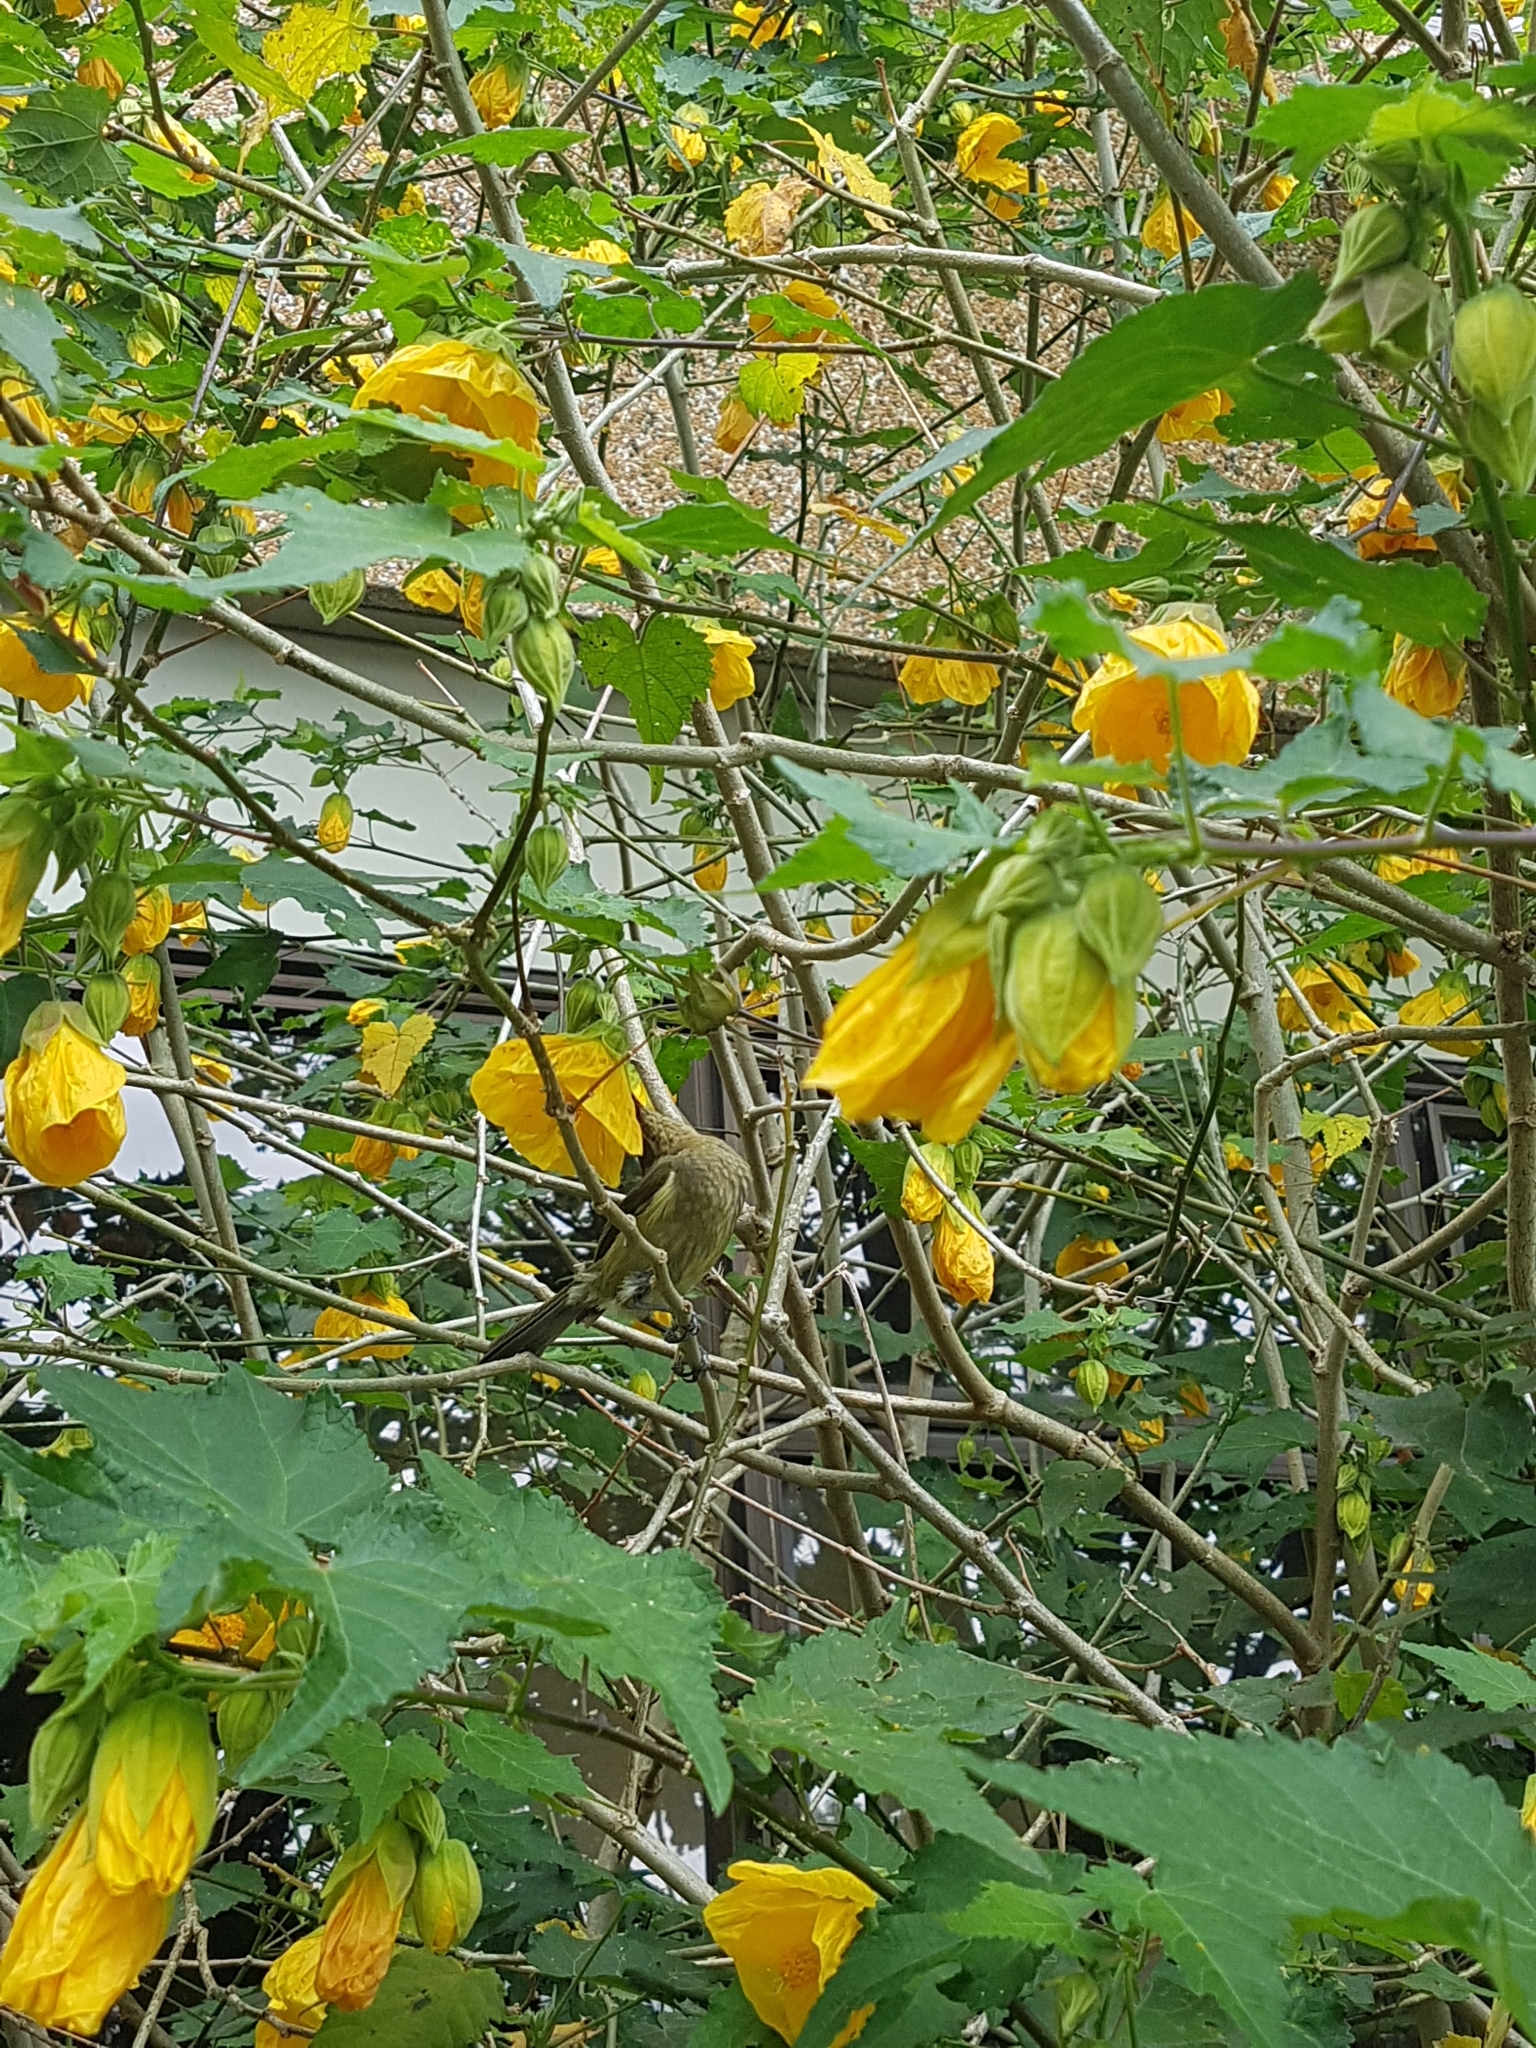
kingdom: Animalia
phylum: Chordata
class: Aves
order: Passeriformes
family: Meliphagidae
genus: Anthornis
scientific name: Anthornis melanura
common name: New zealand bellbird
